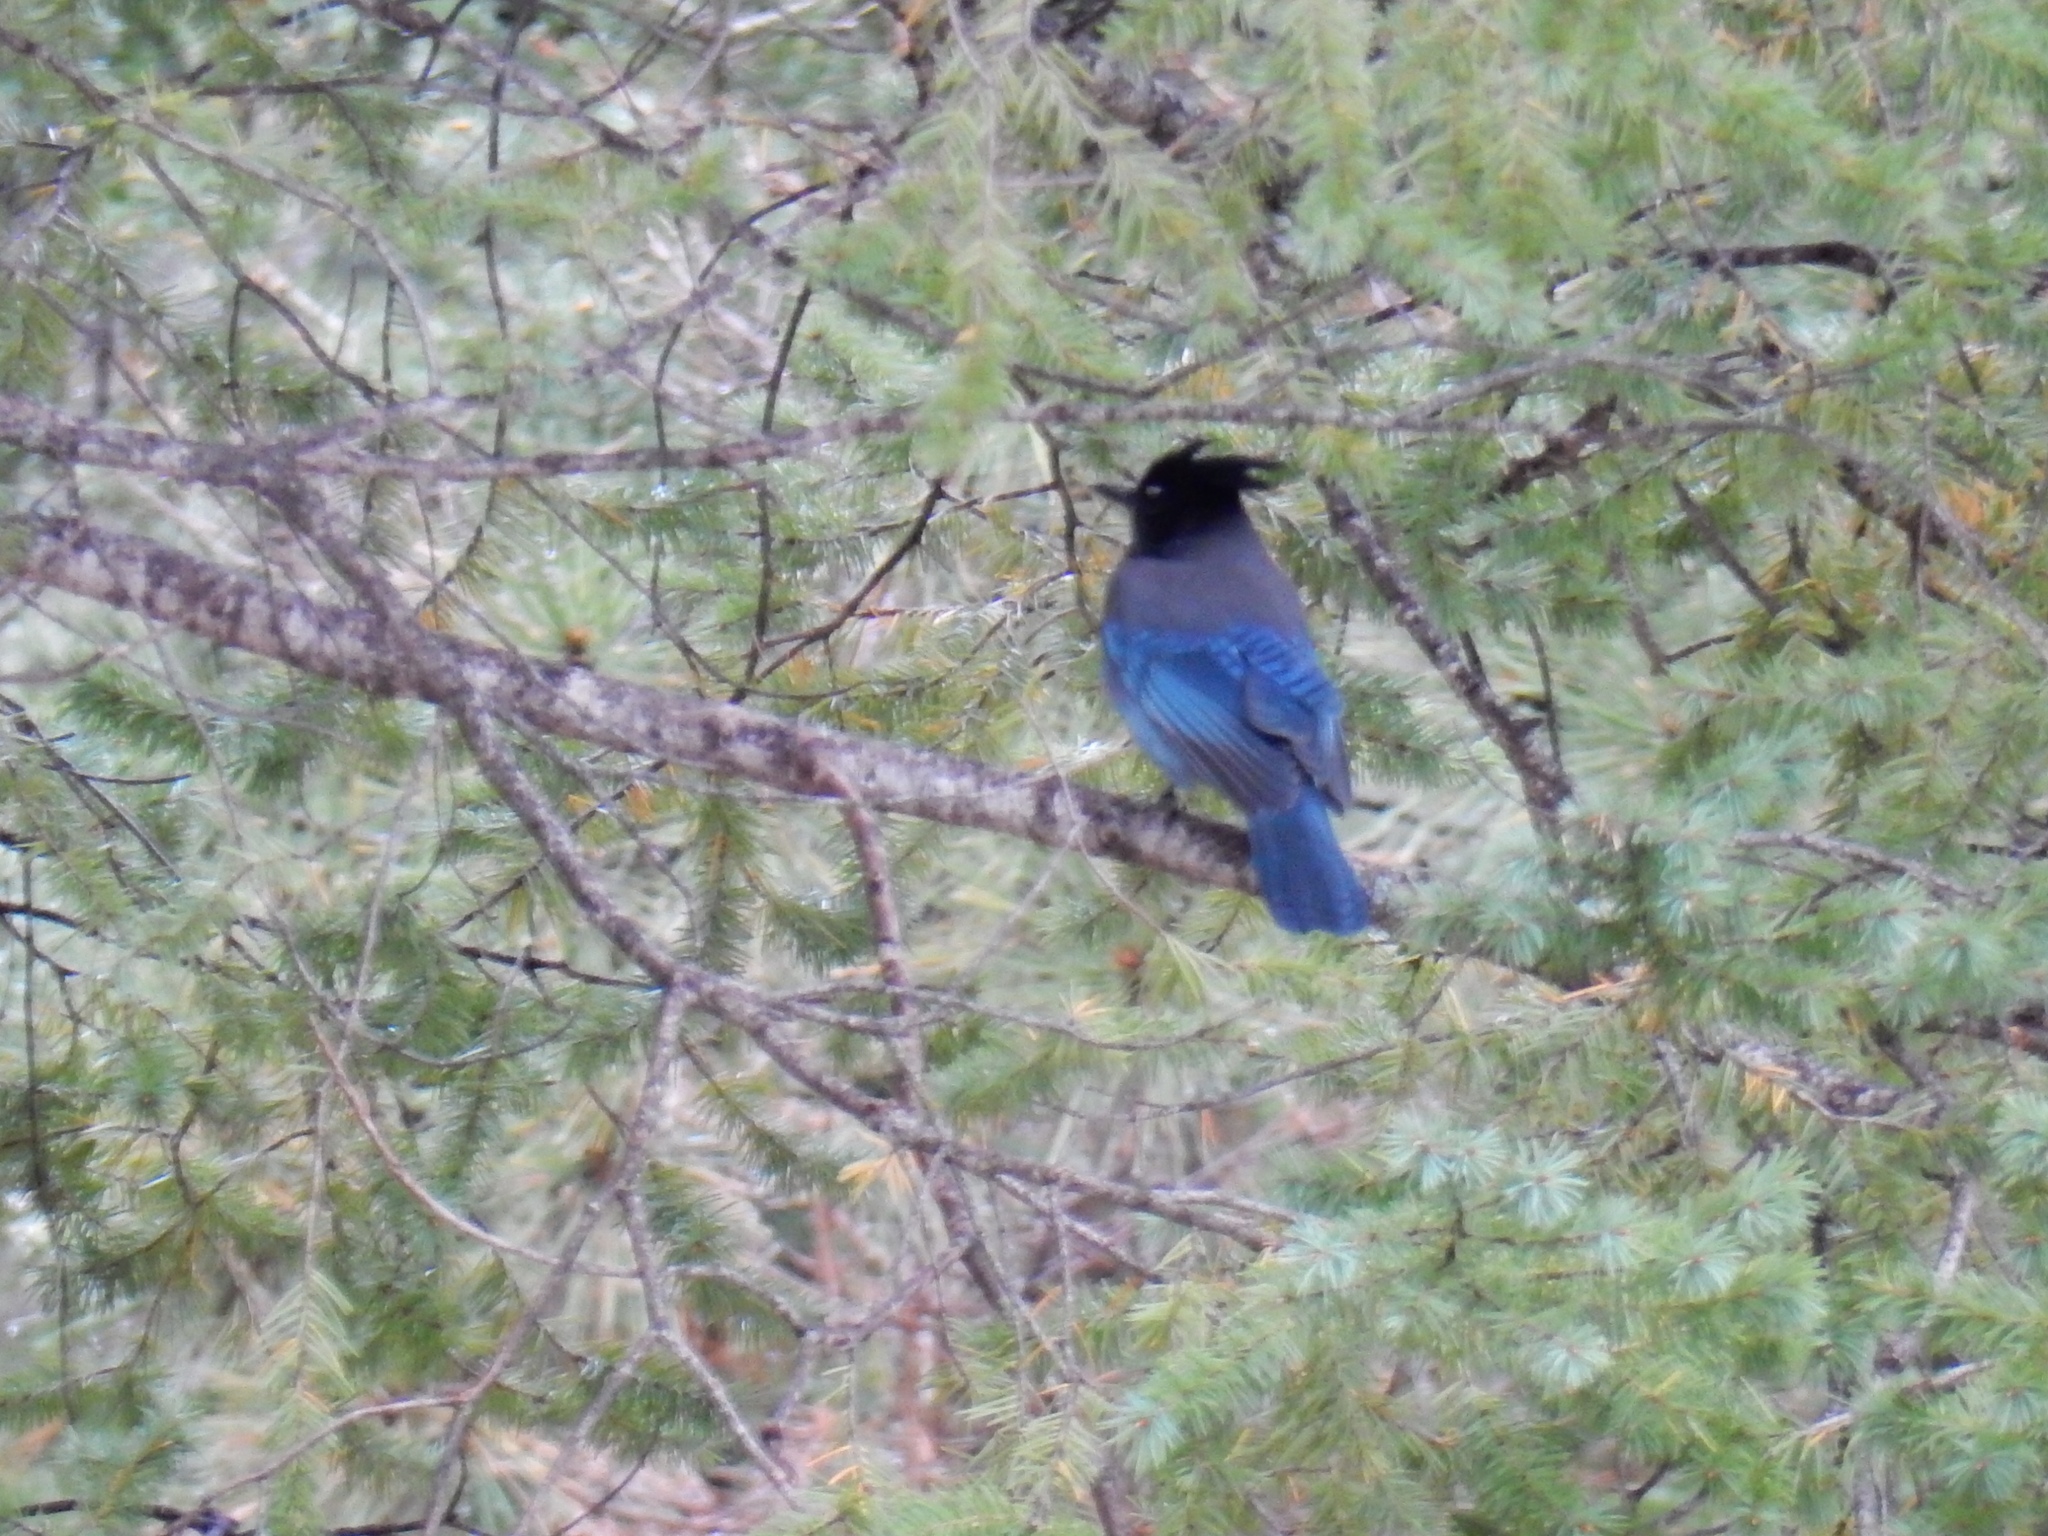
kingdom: Animalia
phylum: Chordata
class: Aves
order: Passeriformes
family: Corvidae
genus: Cyanocitta
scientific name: Cyanocitta stelleri
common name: Steller's jay
